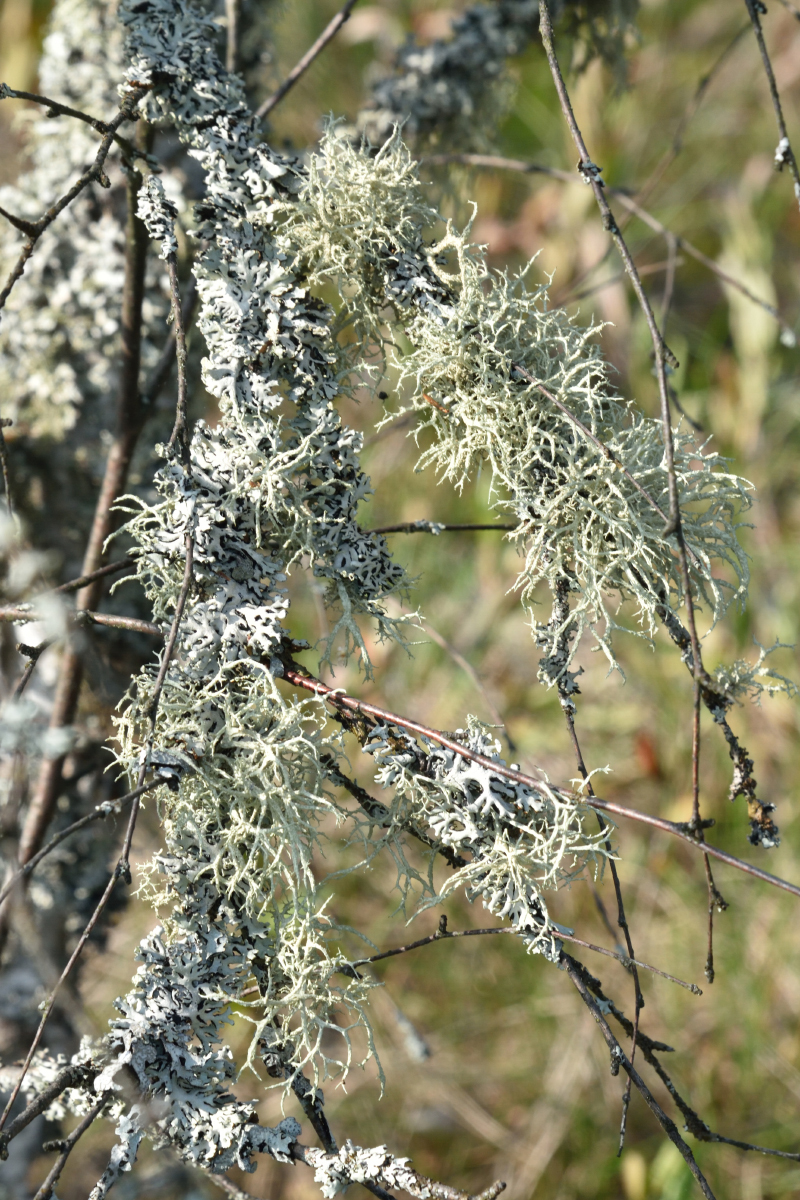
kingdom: Fungi
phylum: Ascomycota
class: Lecanoromycetes
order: Lecanorales
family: Parmeliaceae
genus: Evernia
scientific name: Evernia mesomorpha
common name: Boreal oak moss lichen
